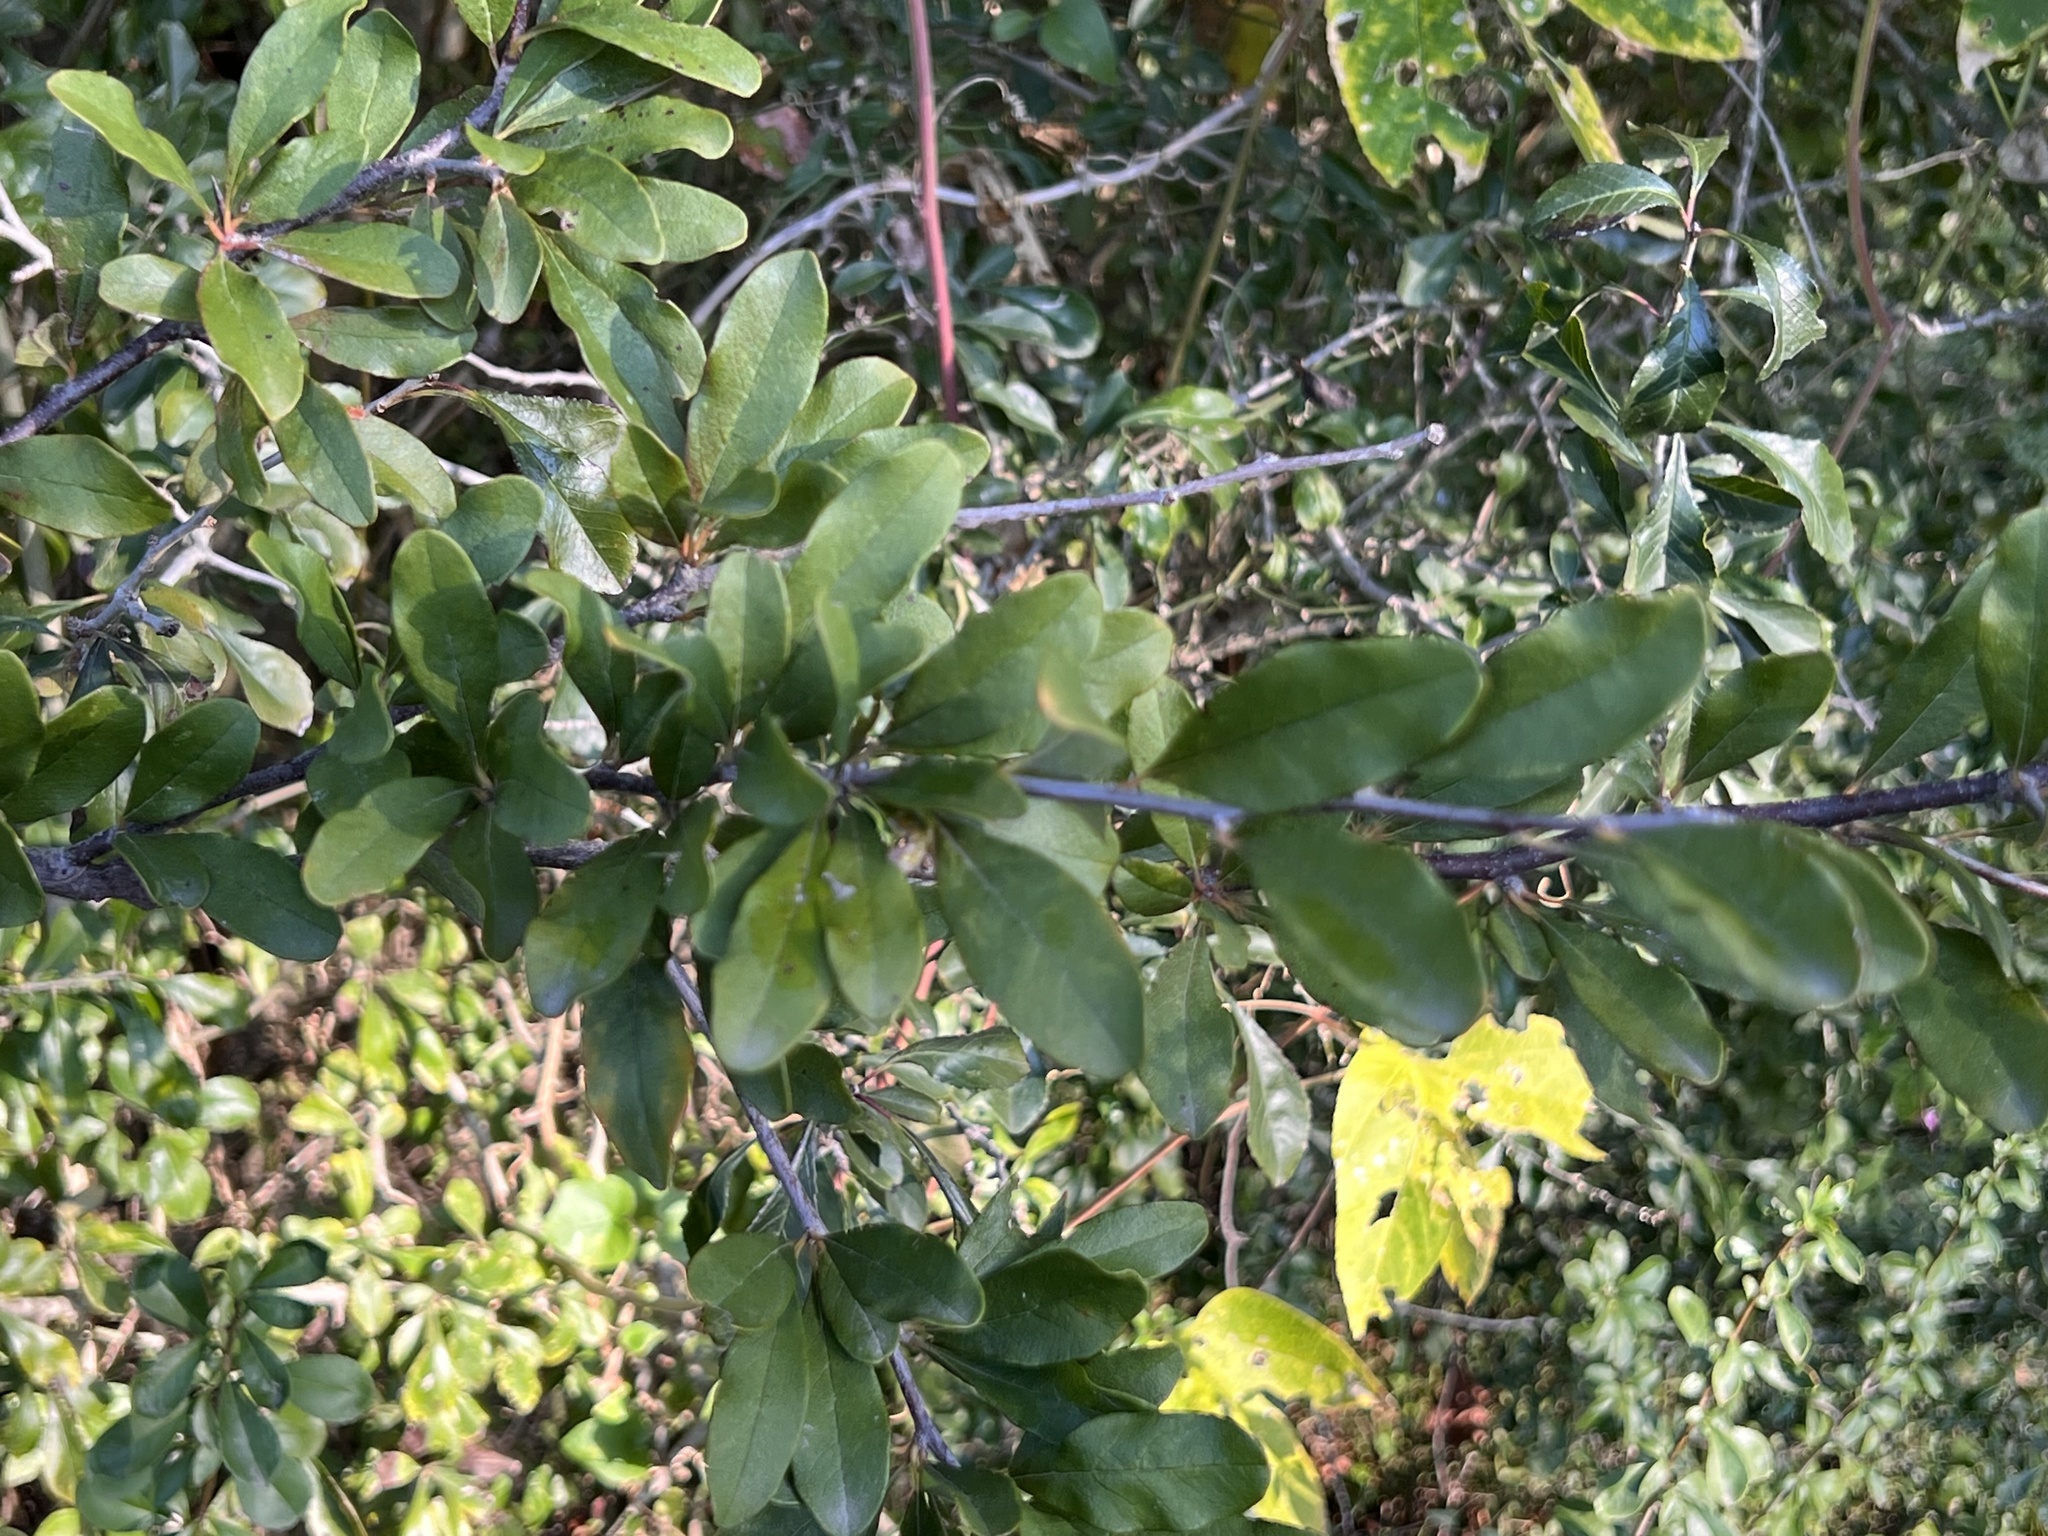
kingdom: Plantae
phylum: Tracheophyta
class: Magnoliopsida
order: Ericales
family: Sapotaceae
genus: Sideroxylon
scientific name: Sideroxylon lanuginosum
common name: Chittamwood
